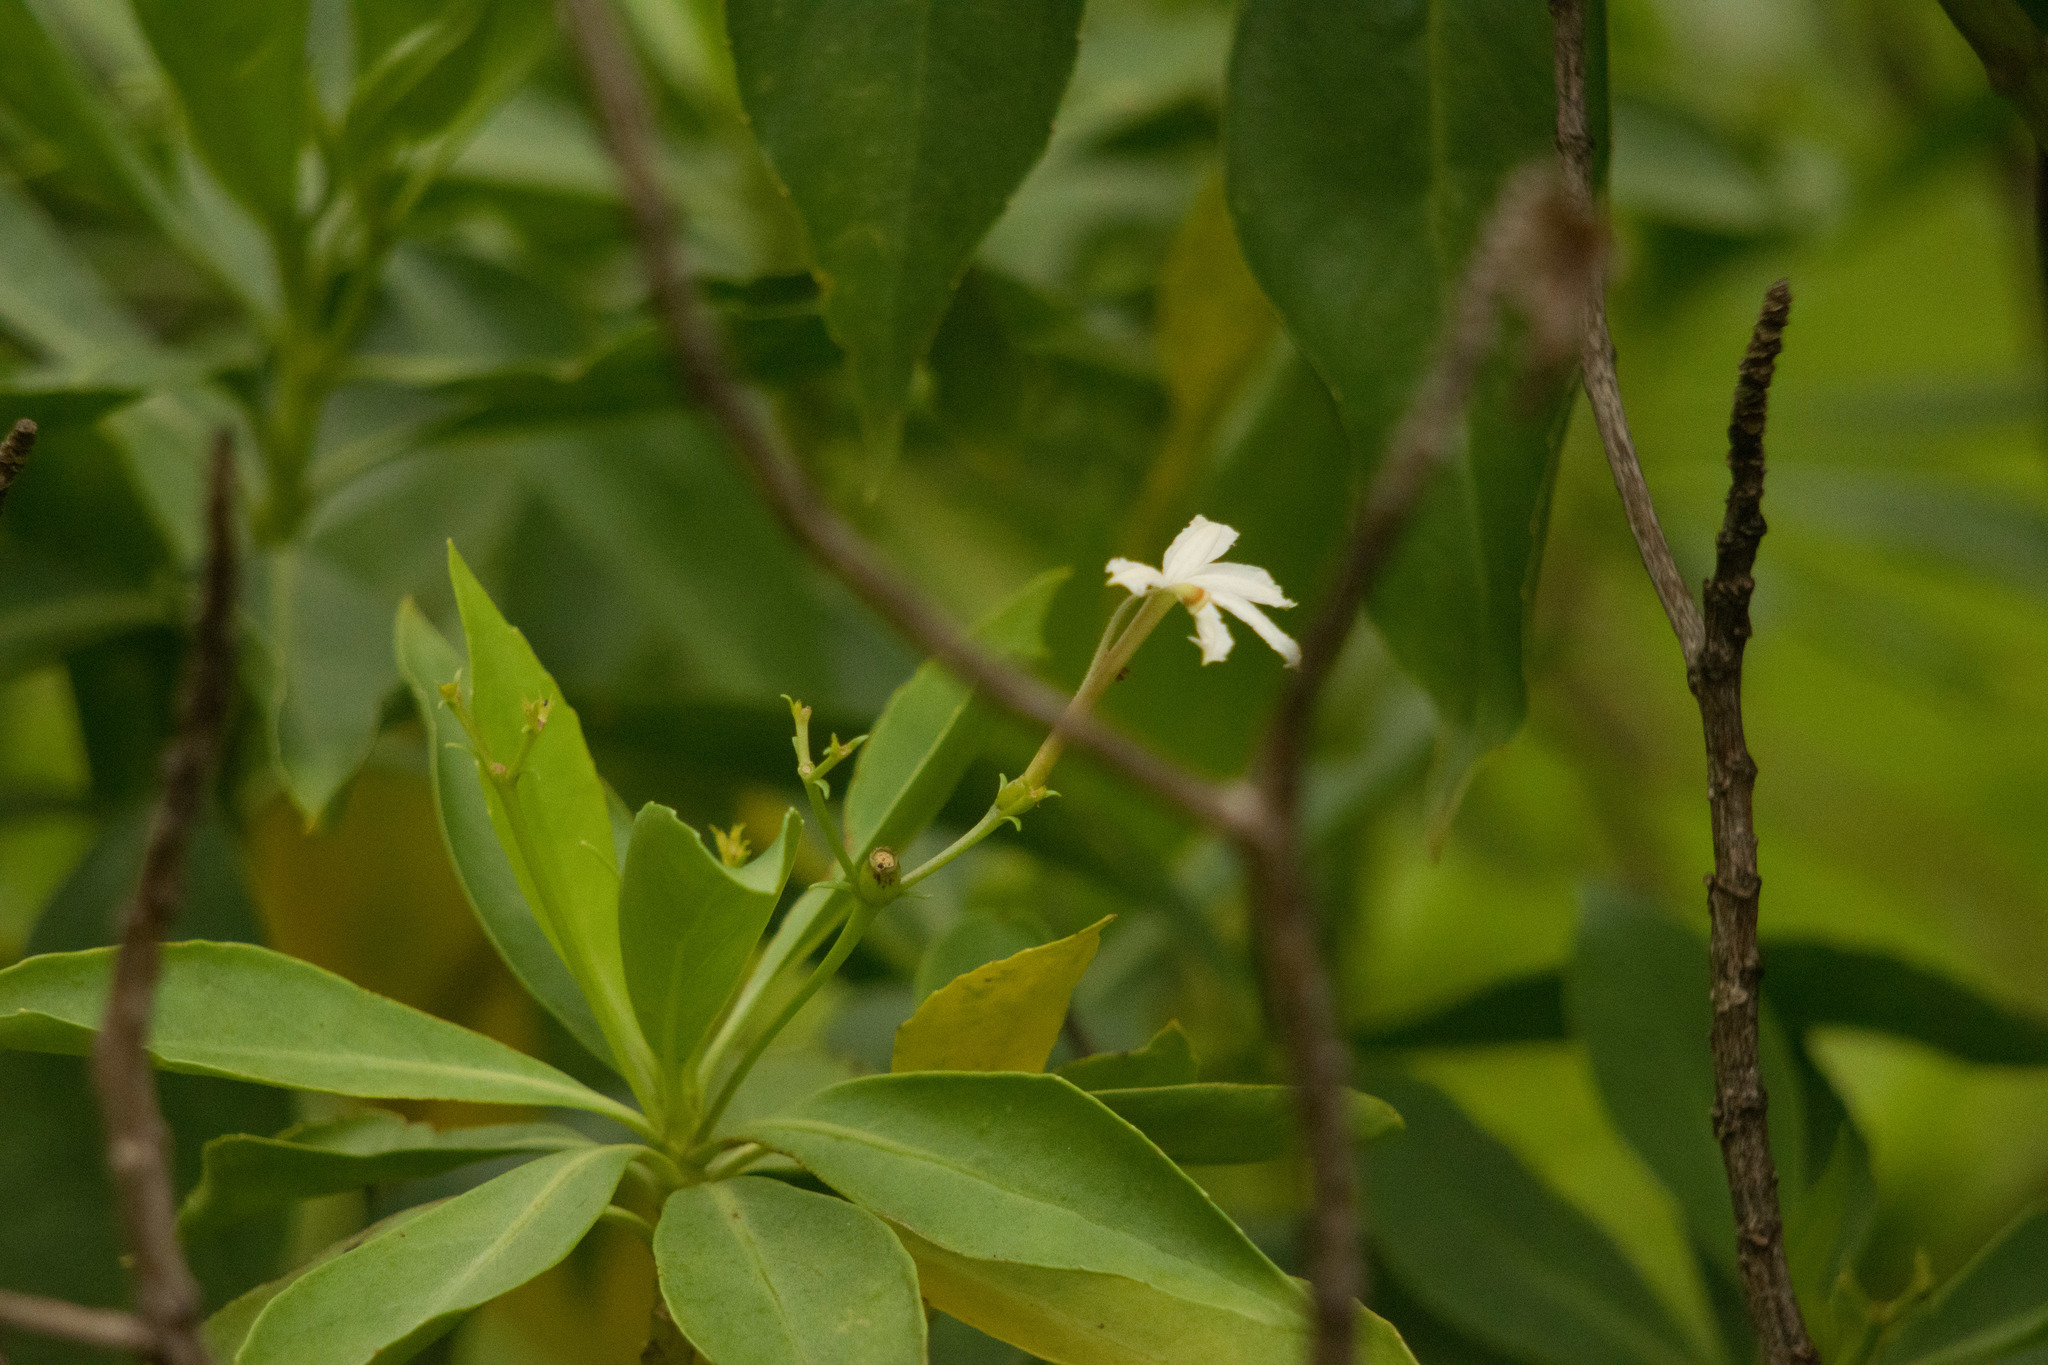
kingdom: Plantae
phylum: Tracheophyta
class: Magnoliopsida
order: Asterales
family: Goodeniaceae
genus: Scaevola
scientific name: Scaevola gaudichaudiana
